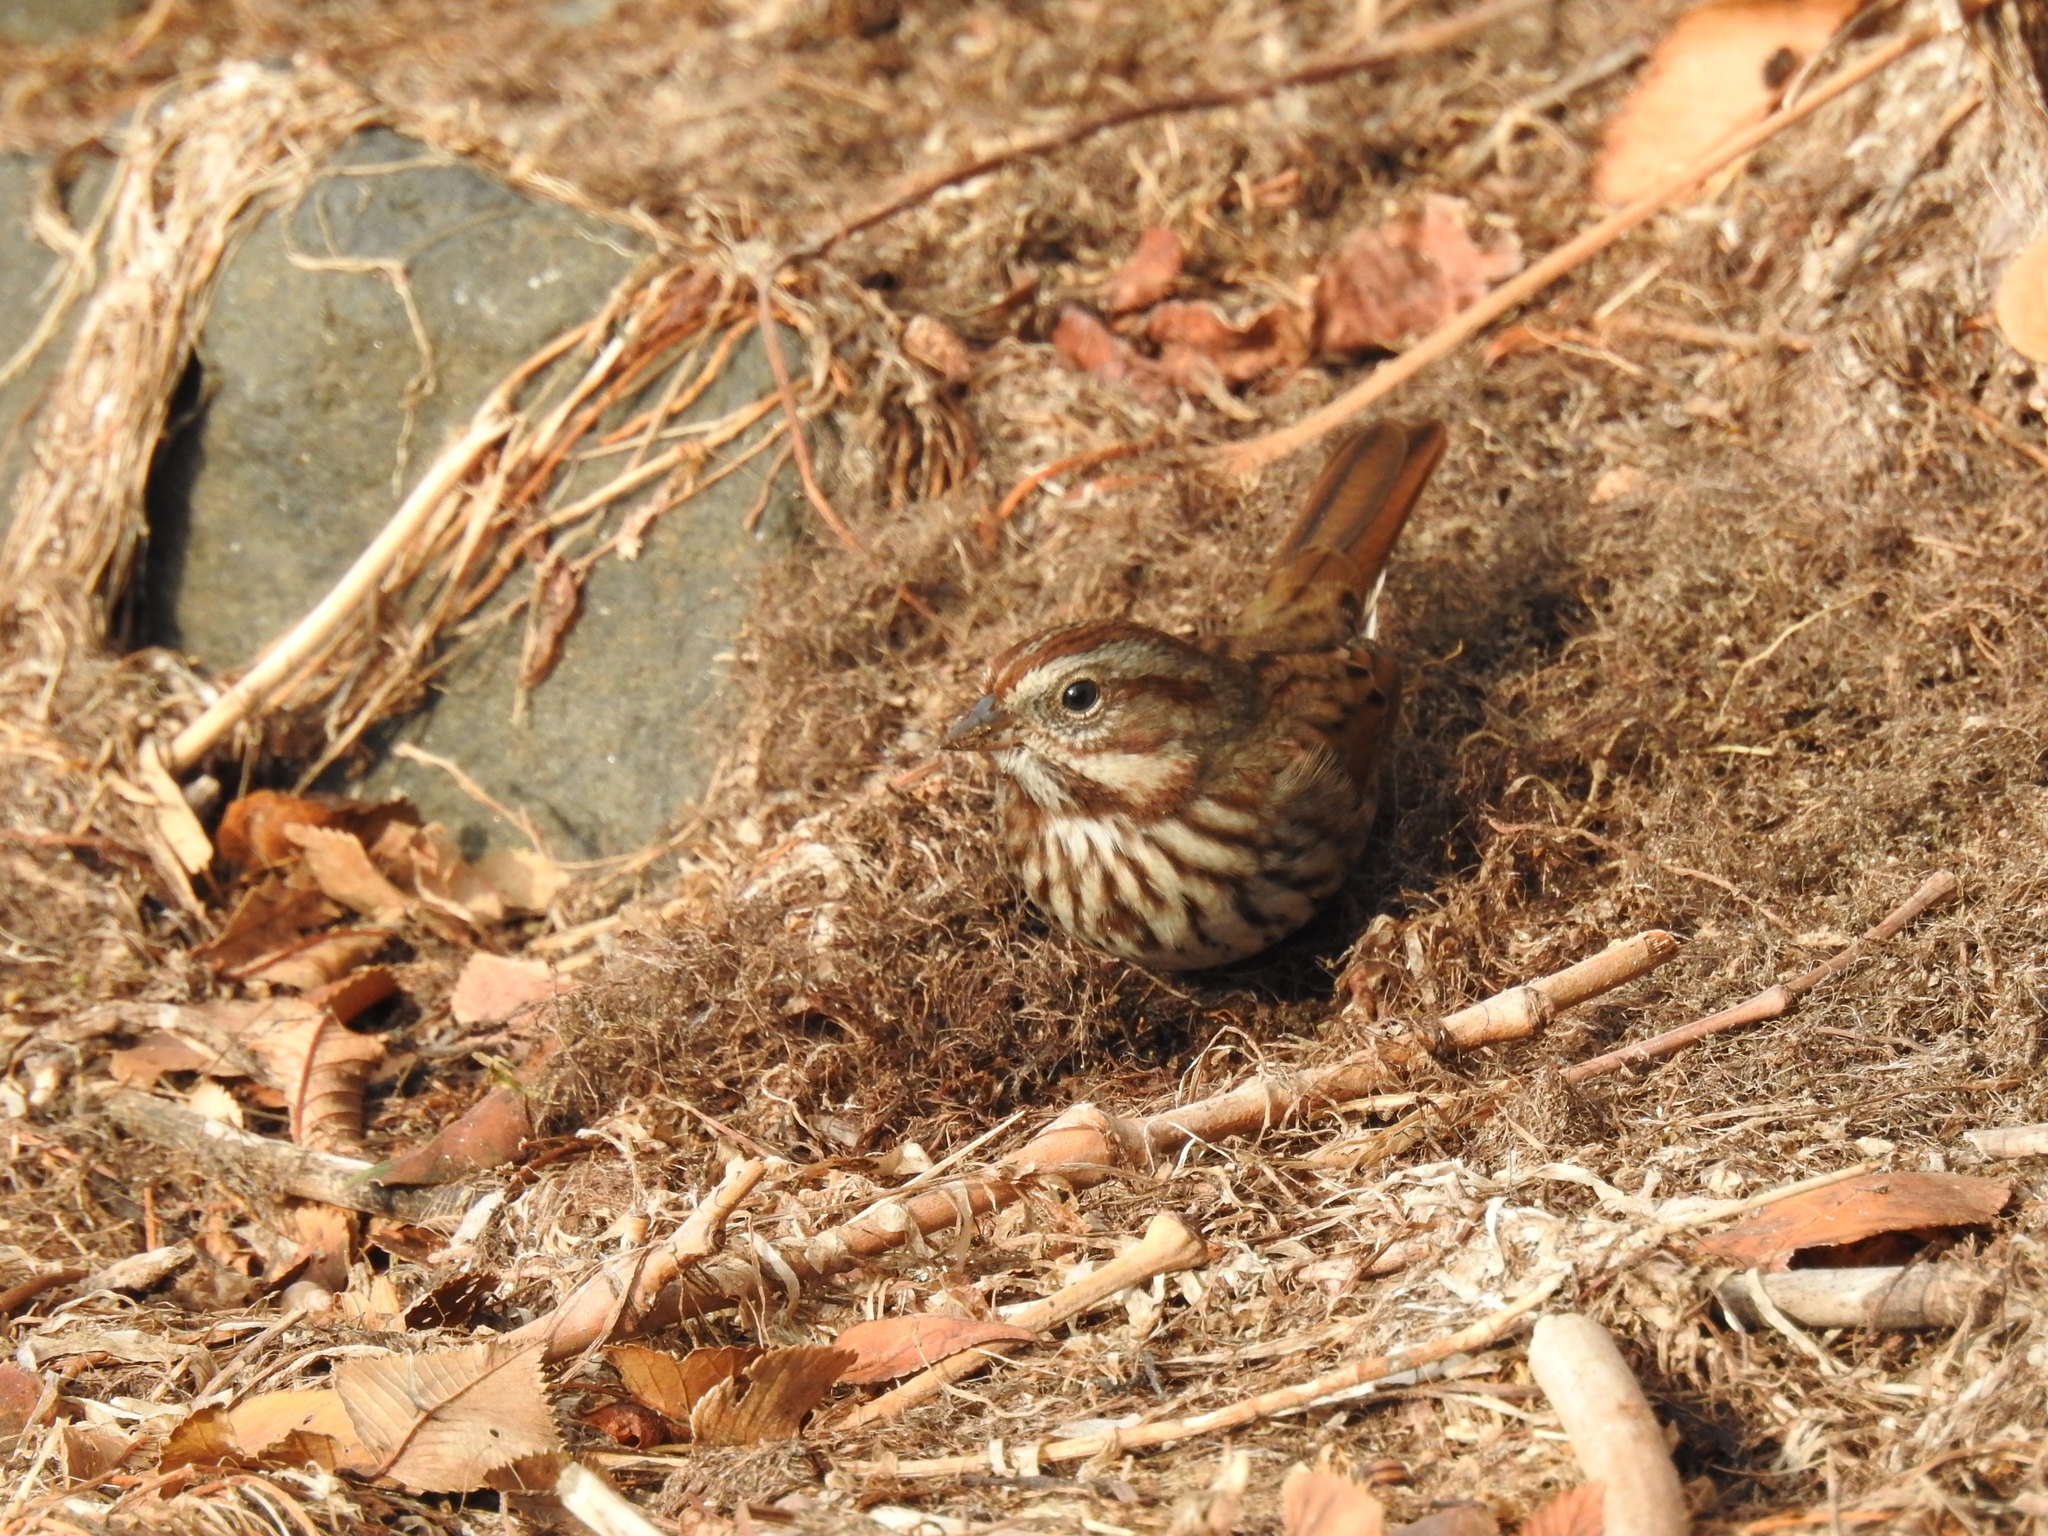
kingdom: Animalia
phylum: Chordata
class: Aves
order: Passeriformes
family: Passerellidae
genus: Melospiza
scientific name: Melospiza melodia
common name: Song sparrow
